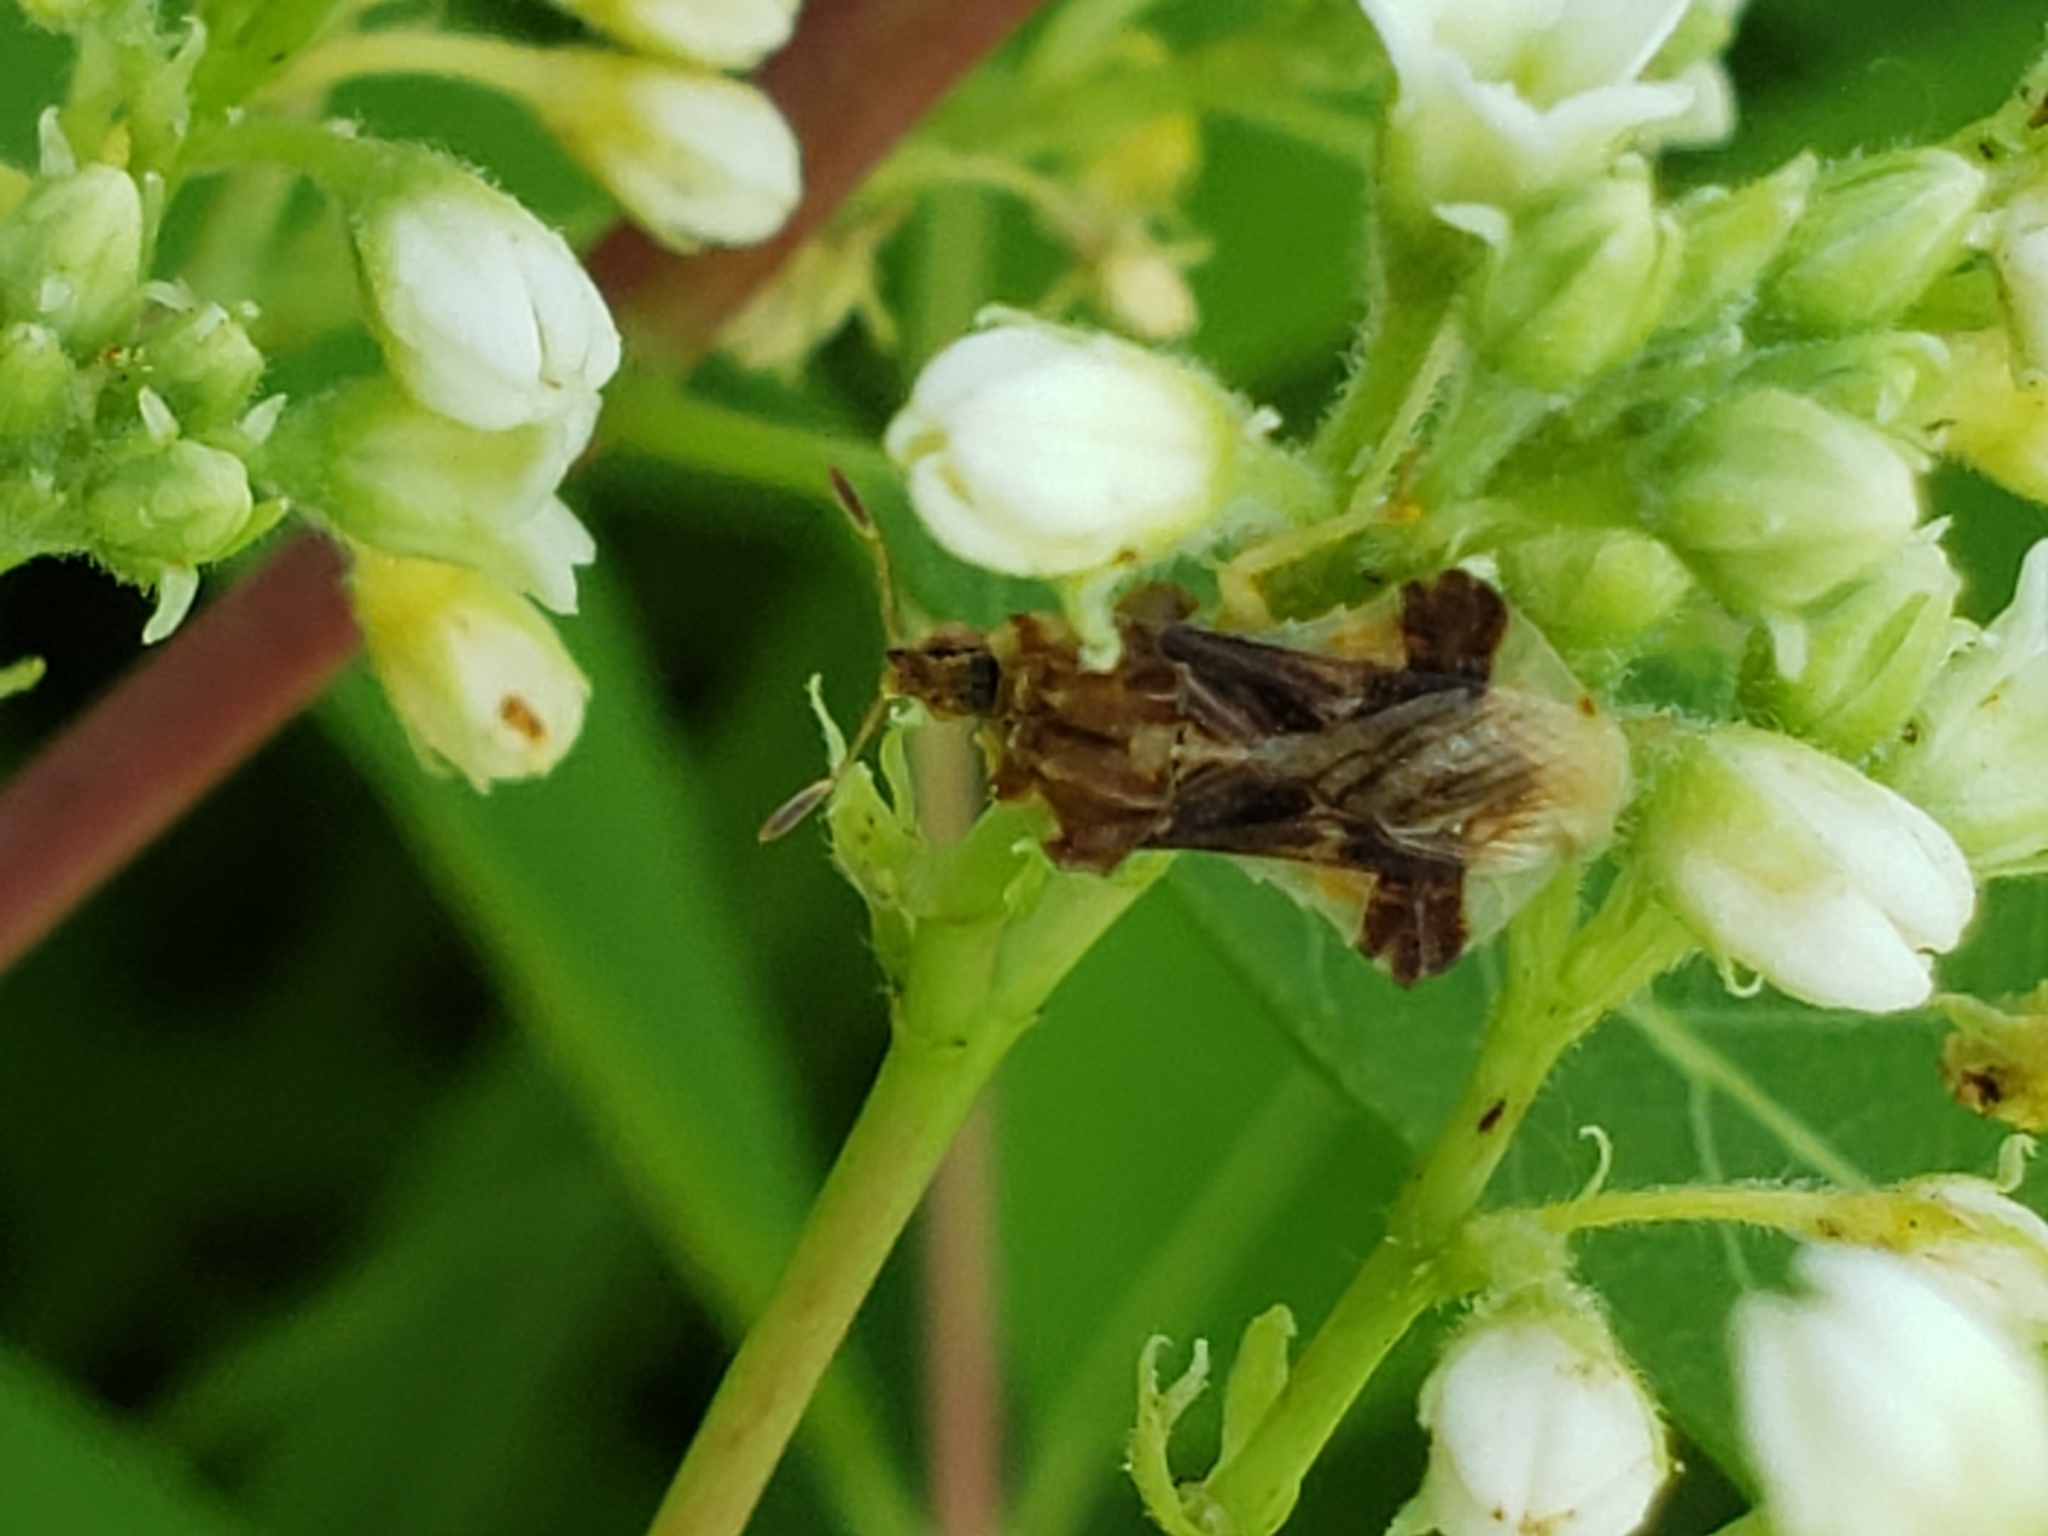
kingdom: Animalia
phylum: Arthropoda
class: Insecta
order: Hemiptera
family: Reduviidae
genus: Phymata
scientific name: Phymata fasciata
